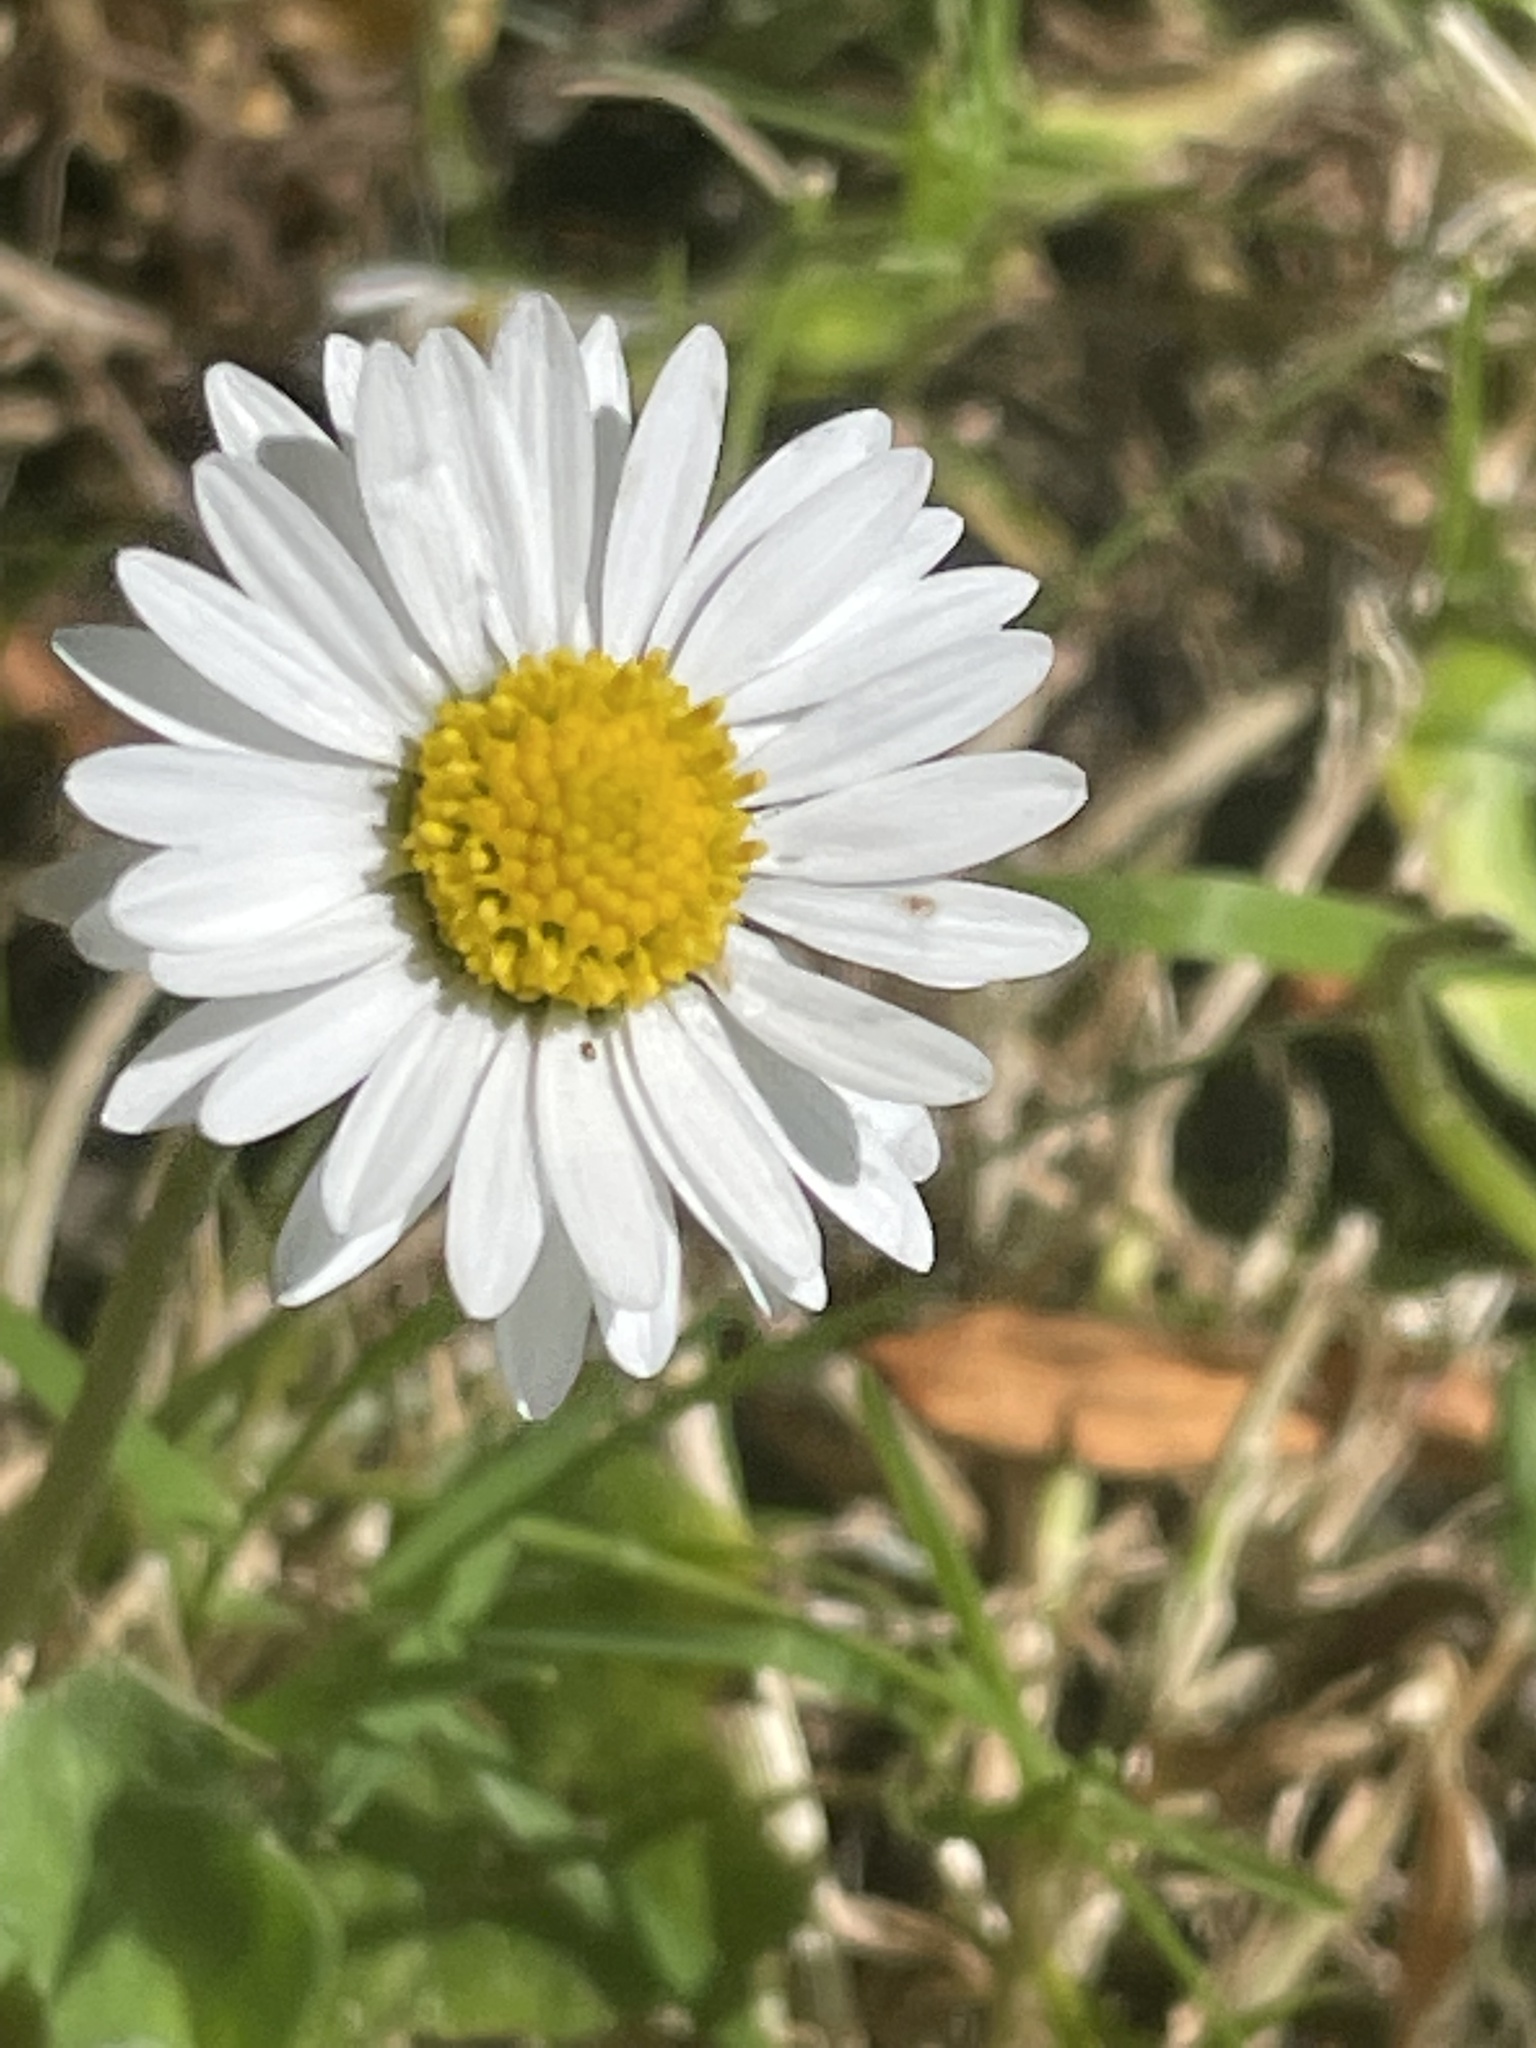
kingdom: Plantae
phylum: Tracheophyta
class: Magnoliopsida
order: Asterales
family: Asteraceae
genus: Bellis
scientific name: Bellis perennis
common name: Lawndaisy
